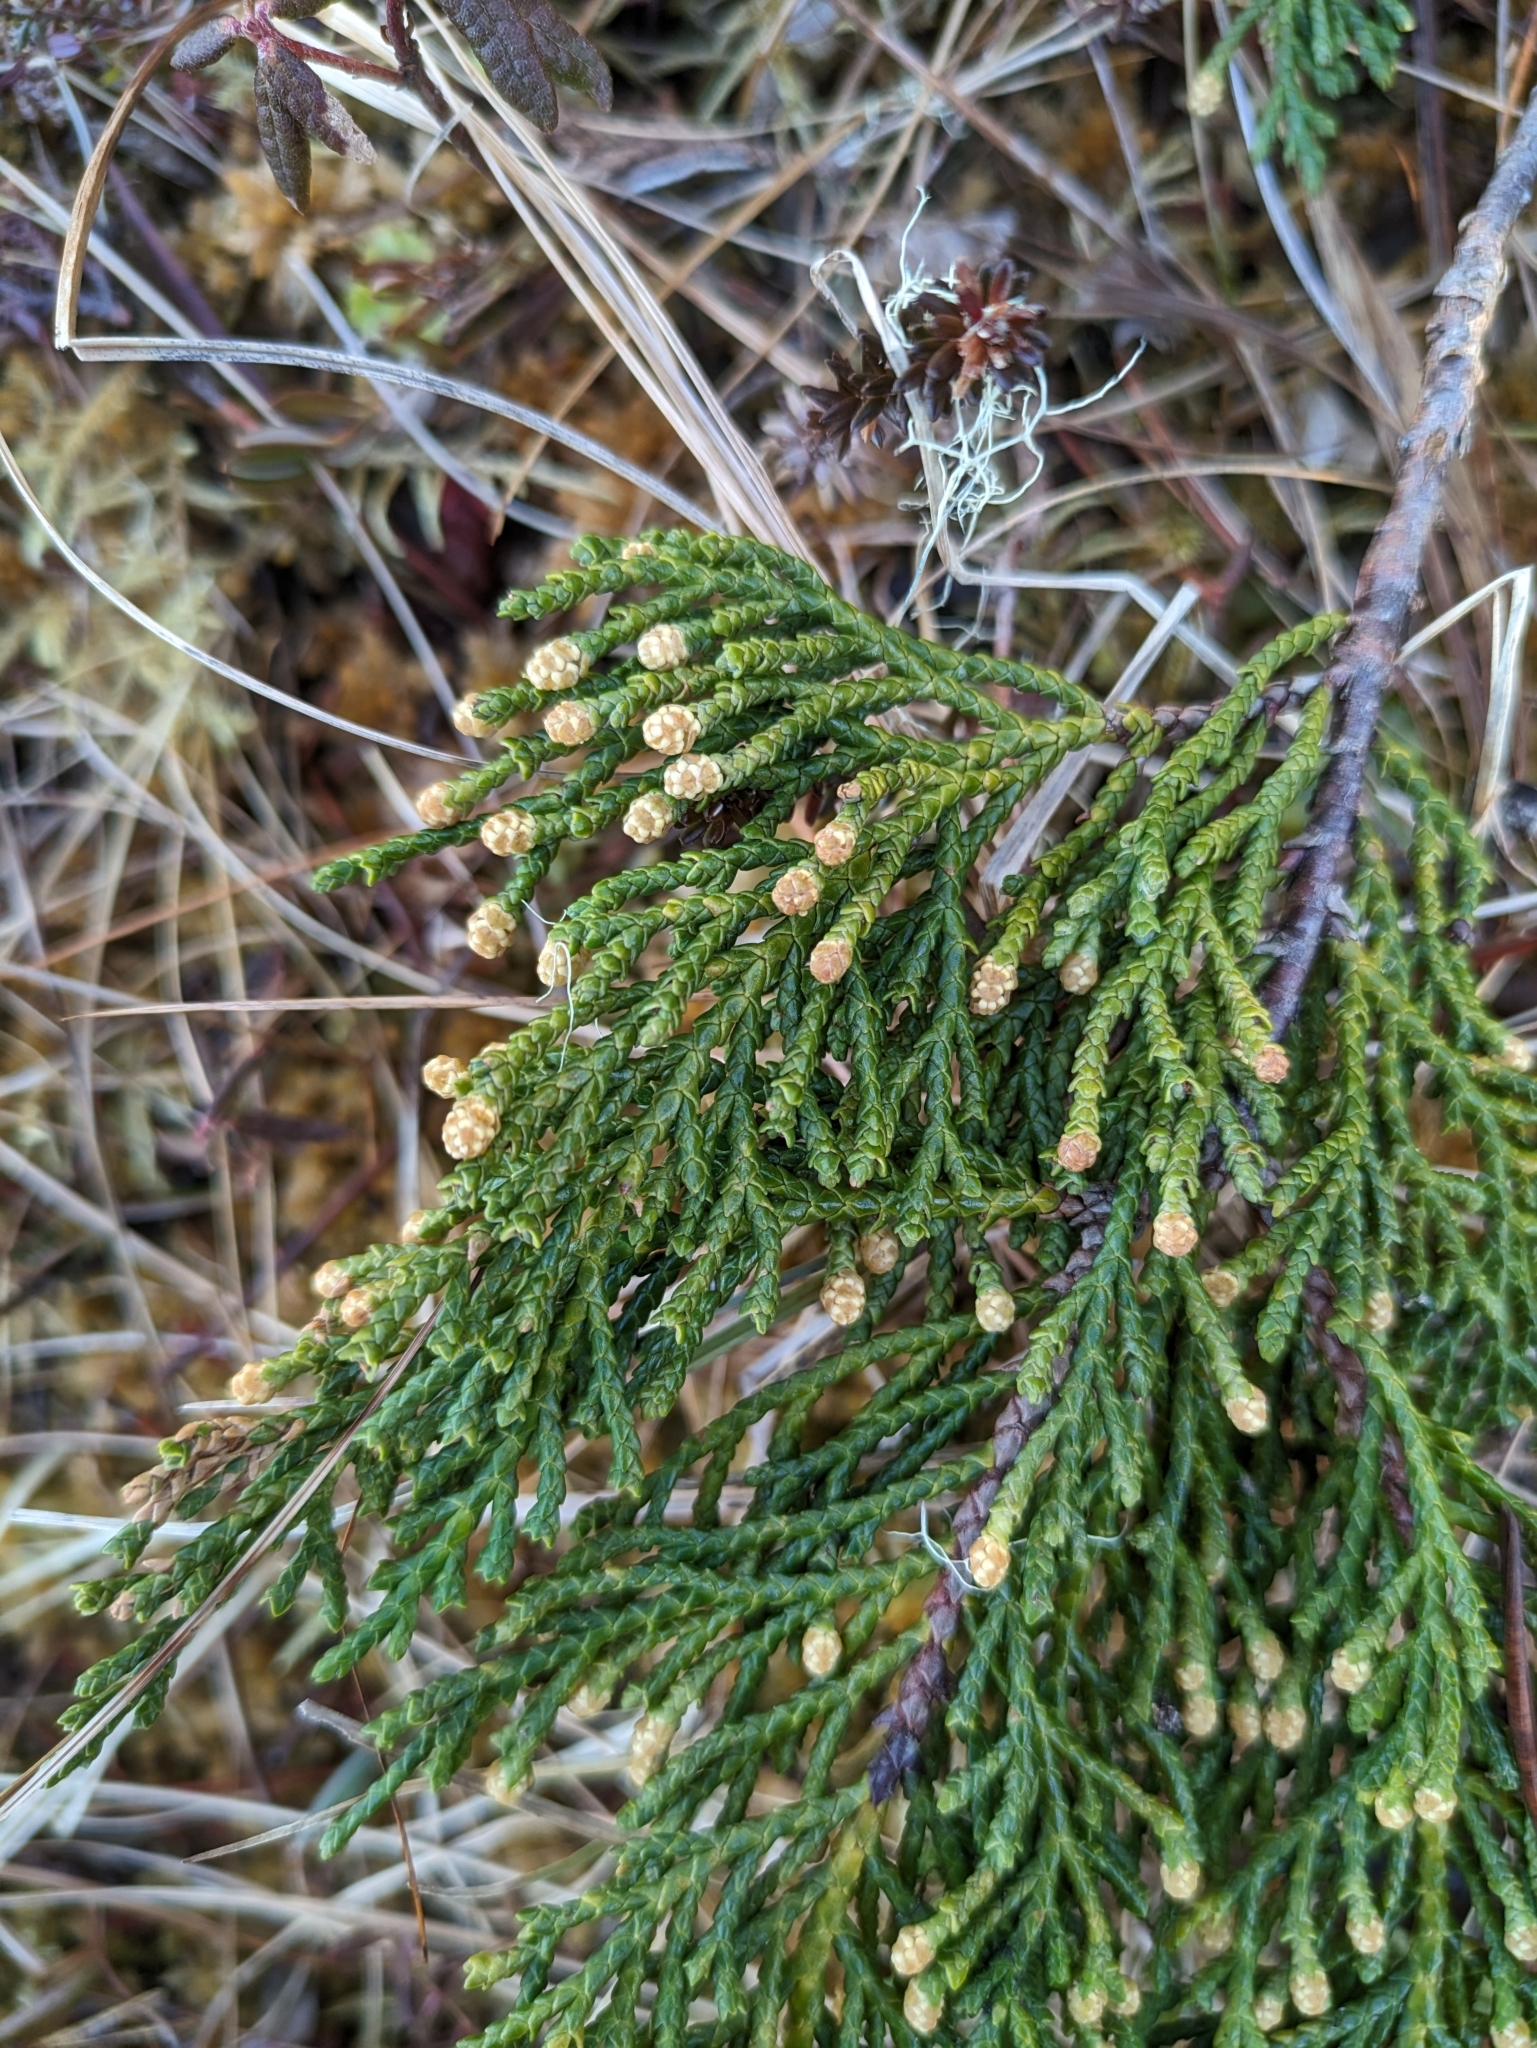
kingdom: Plantae
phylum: Tracheophyta
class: Pinopsida
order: Pinales
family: Cupressaceae
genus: Xanthocyparis
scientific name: Xanthocyparis nootkatensis
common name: Nootka cypress
